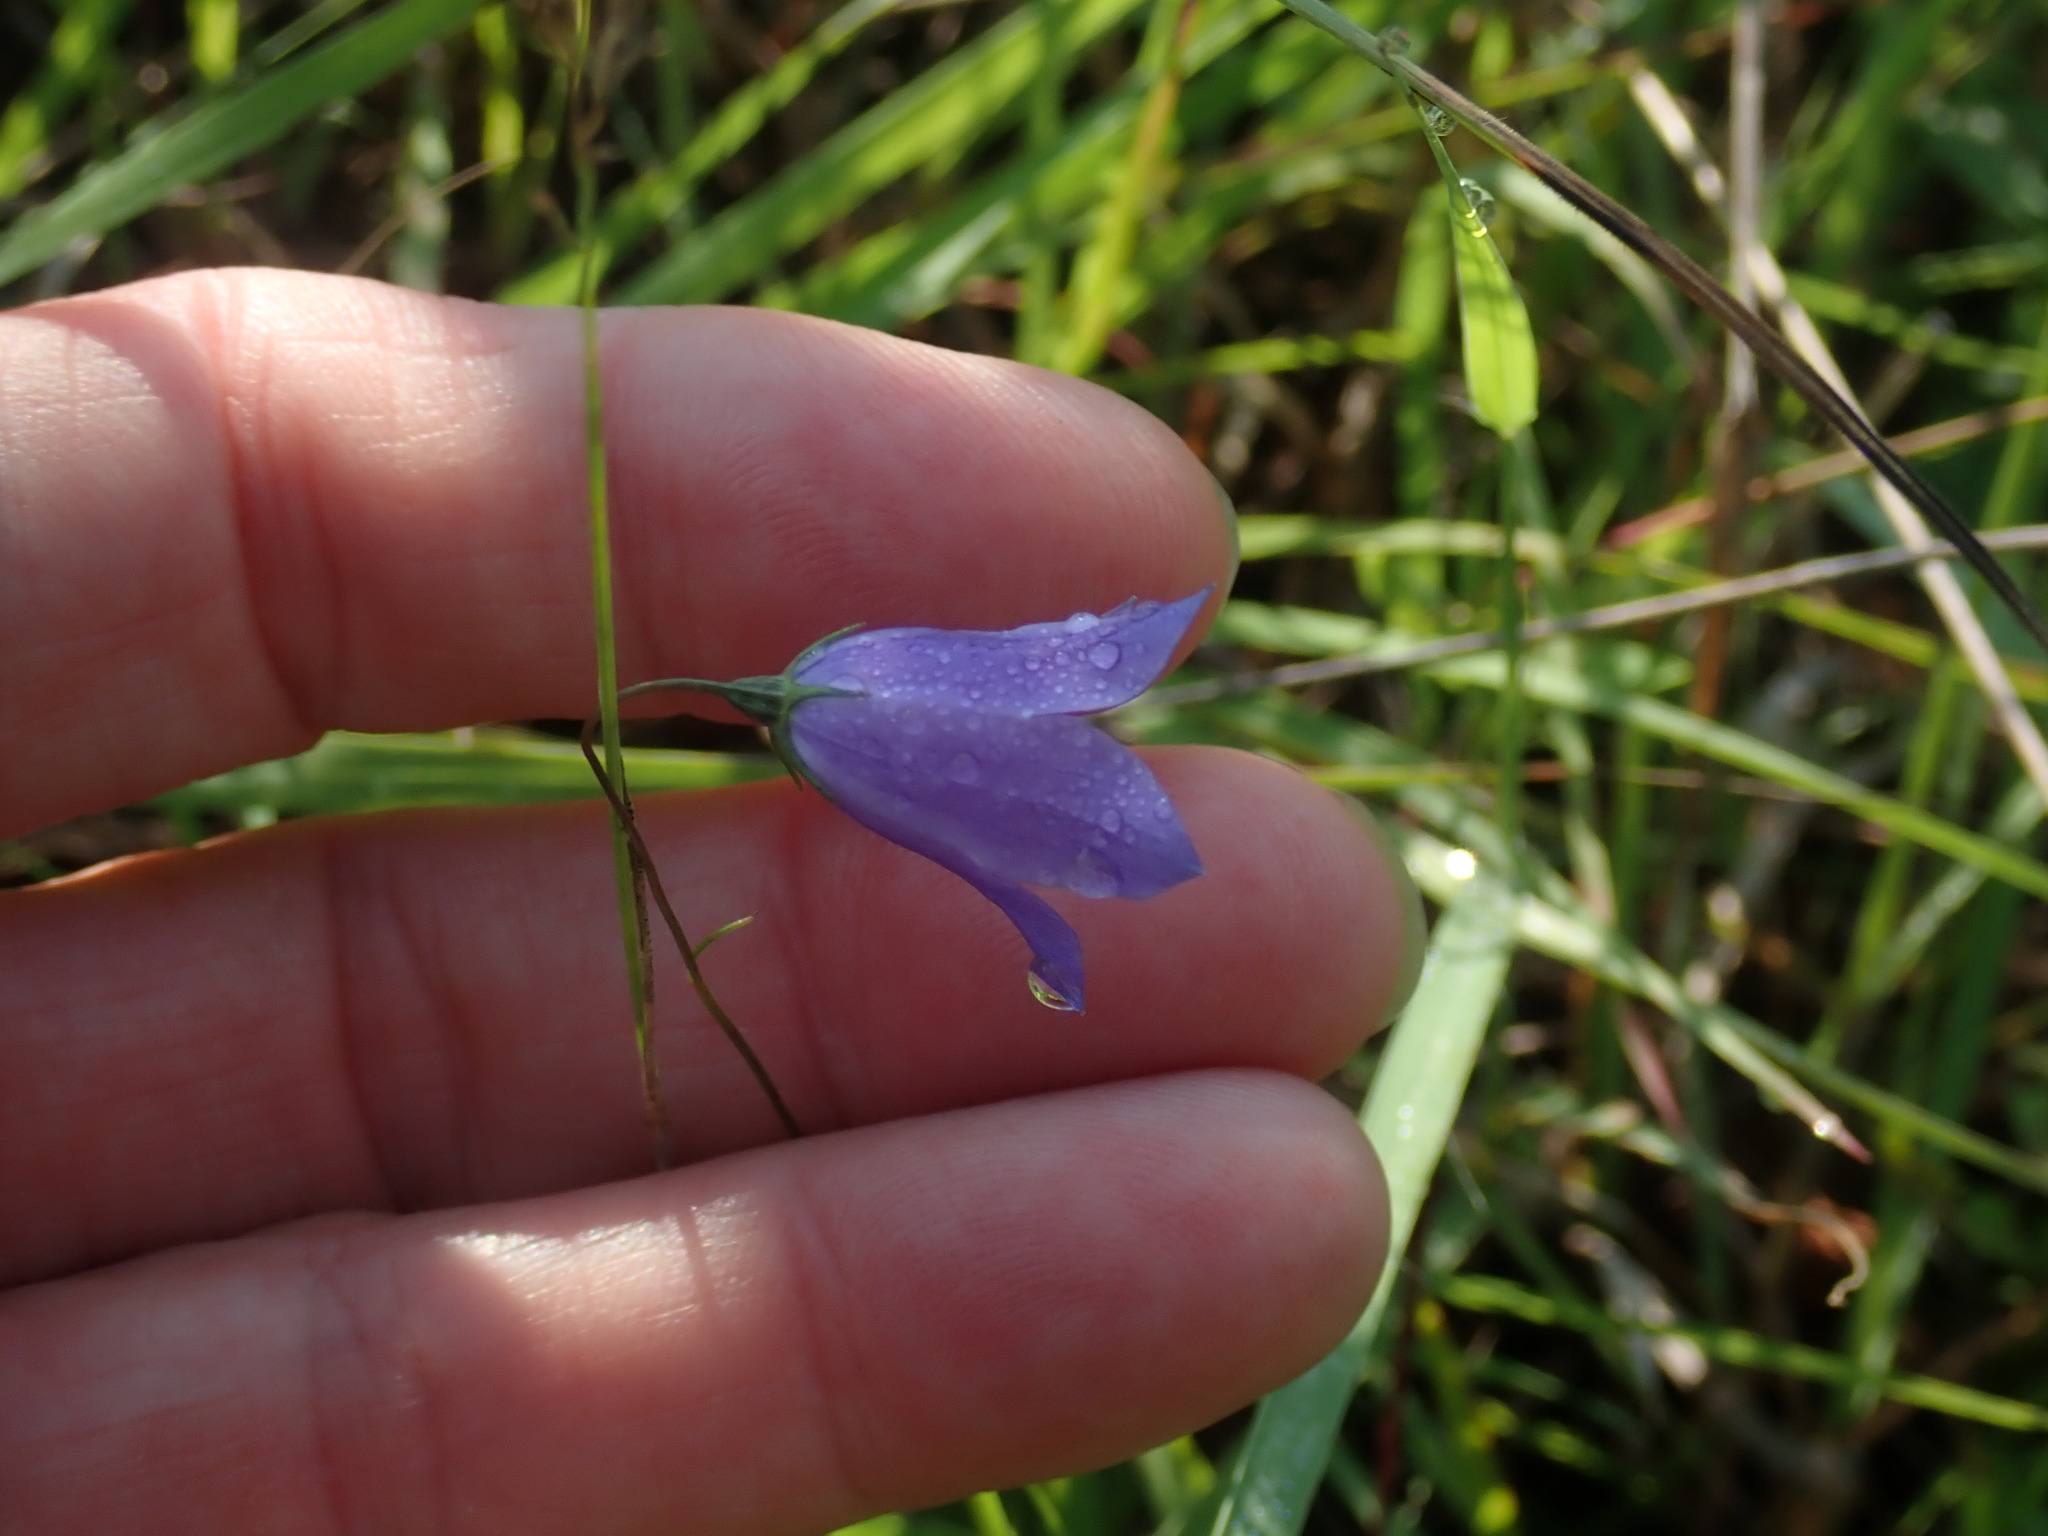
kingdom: Plantae
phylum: Tracheophyta
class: Magnoliopsida
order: Asterales
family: Campanulaceae
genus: Campanula
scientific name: Campanula intercedens
